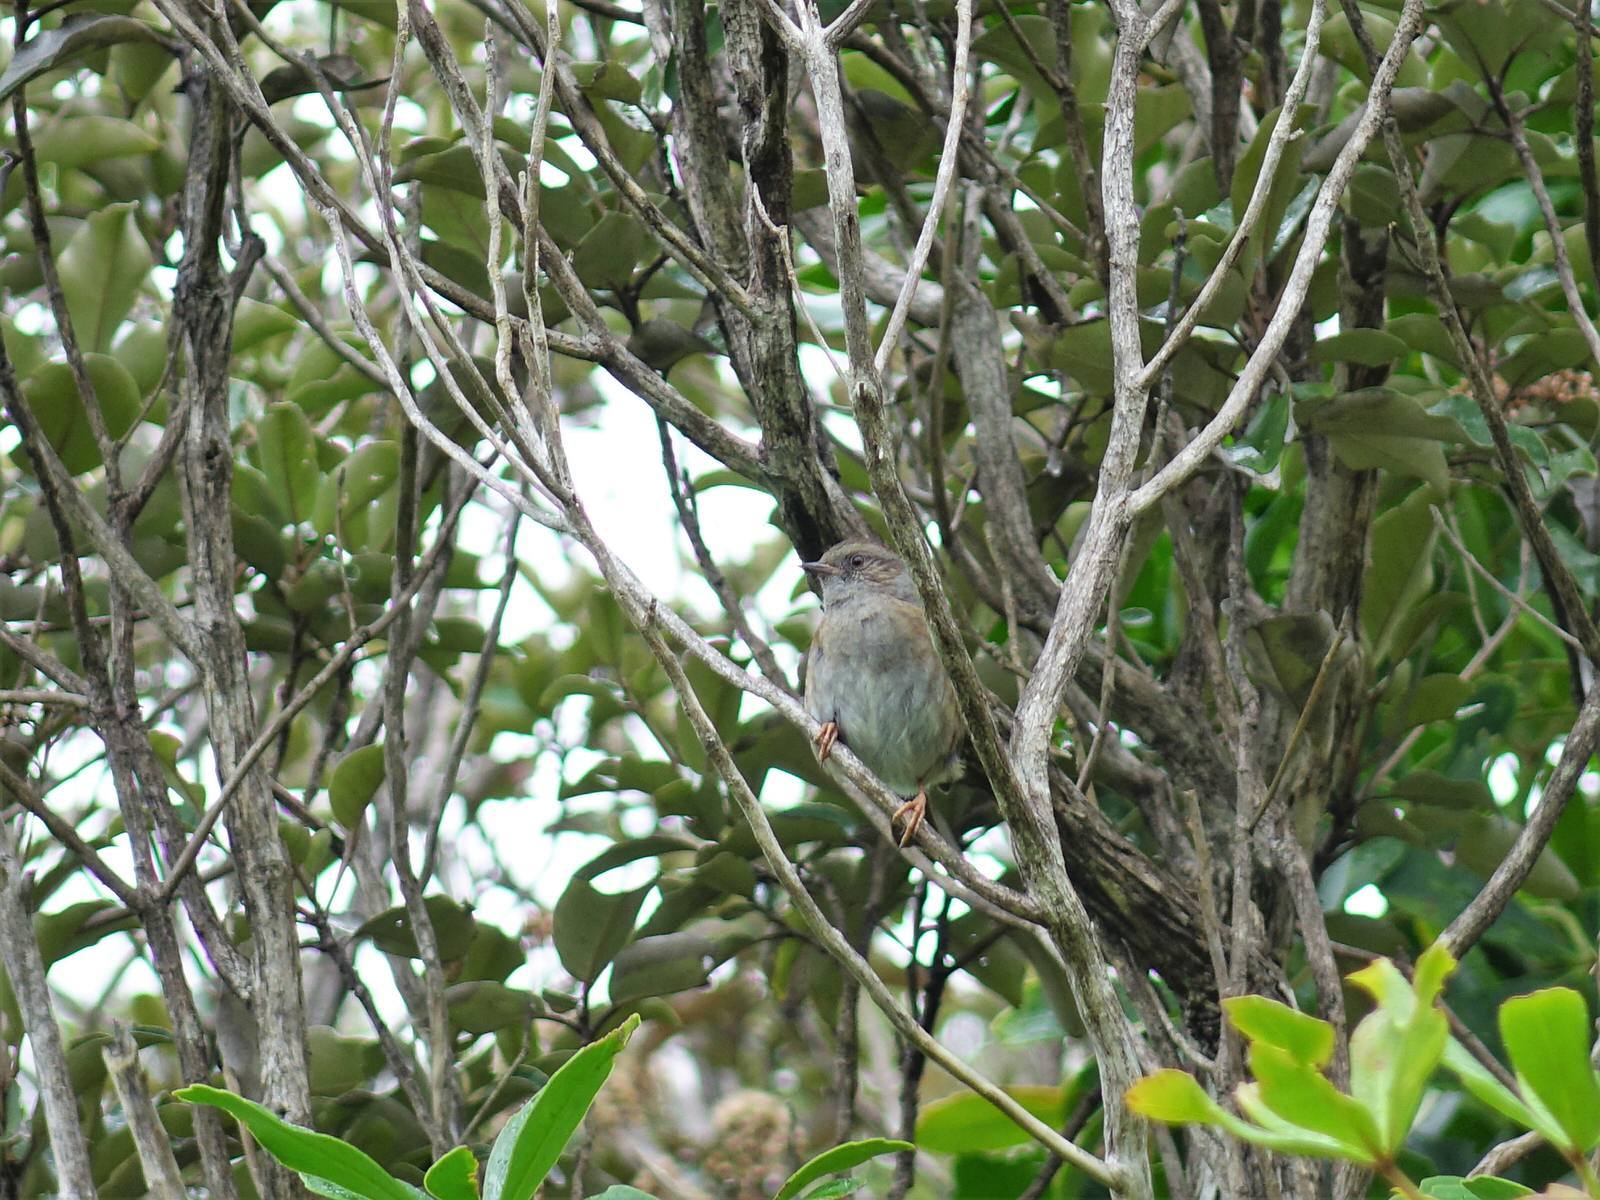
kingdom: Animalia
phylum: Chordata
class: Aves
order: Passeriformes
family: Prunellidae
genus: Prunella
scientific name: Prunella modularis
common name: Dunnock
